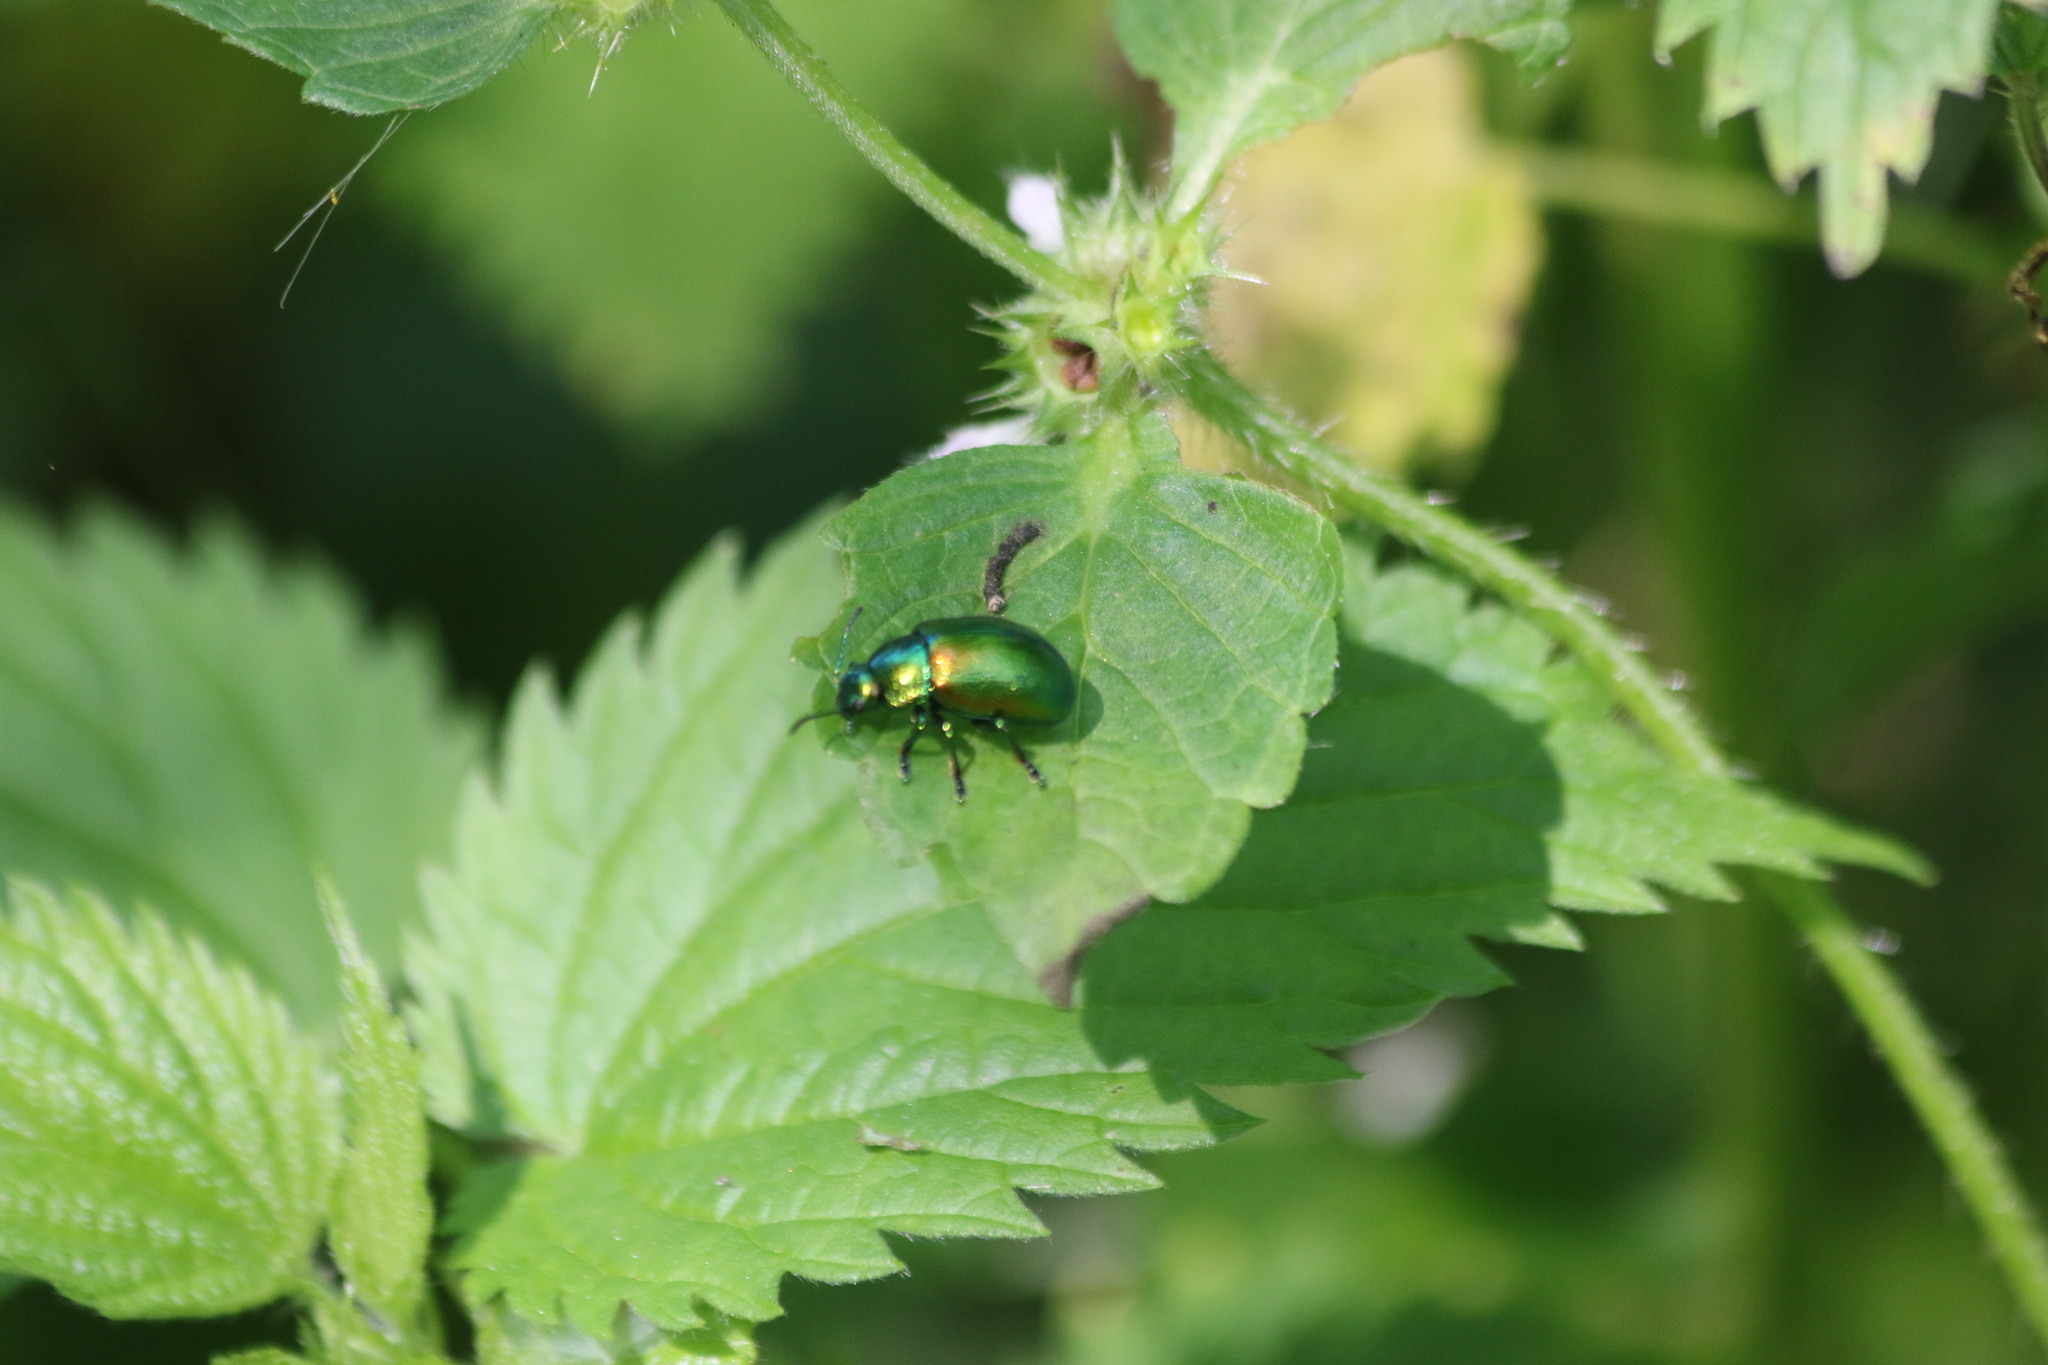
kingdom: Animalia
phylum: Arthropoda
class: Insecta
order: Coleoptera
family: Chrysomelidae
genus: Oreina
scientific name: Oreina
